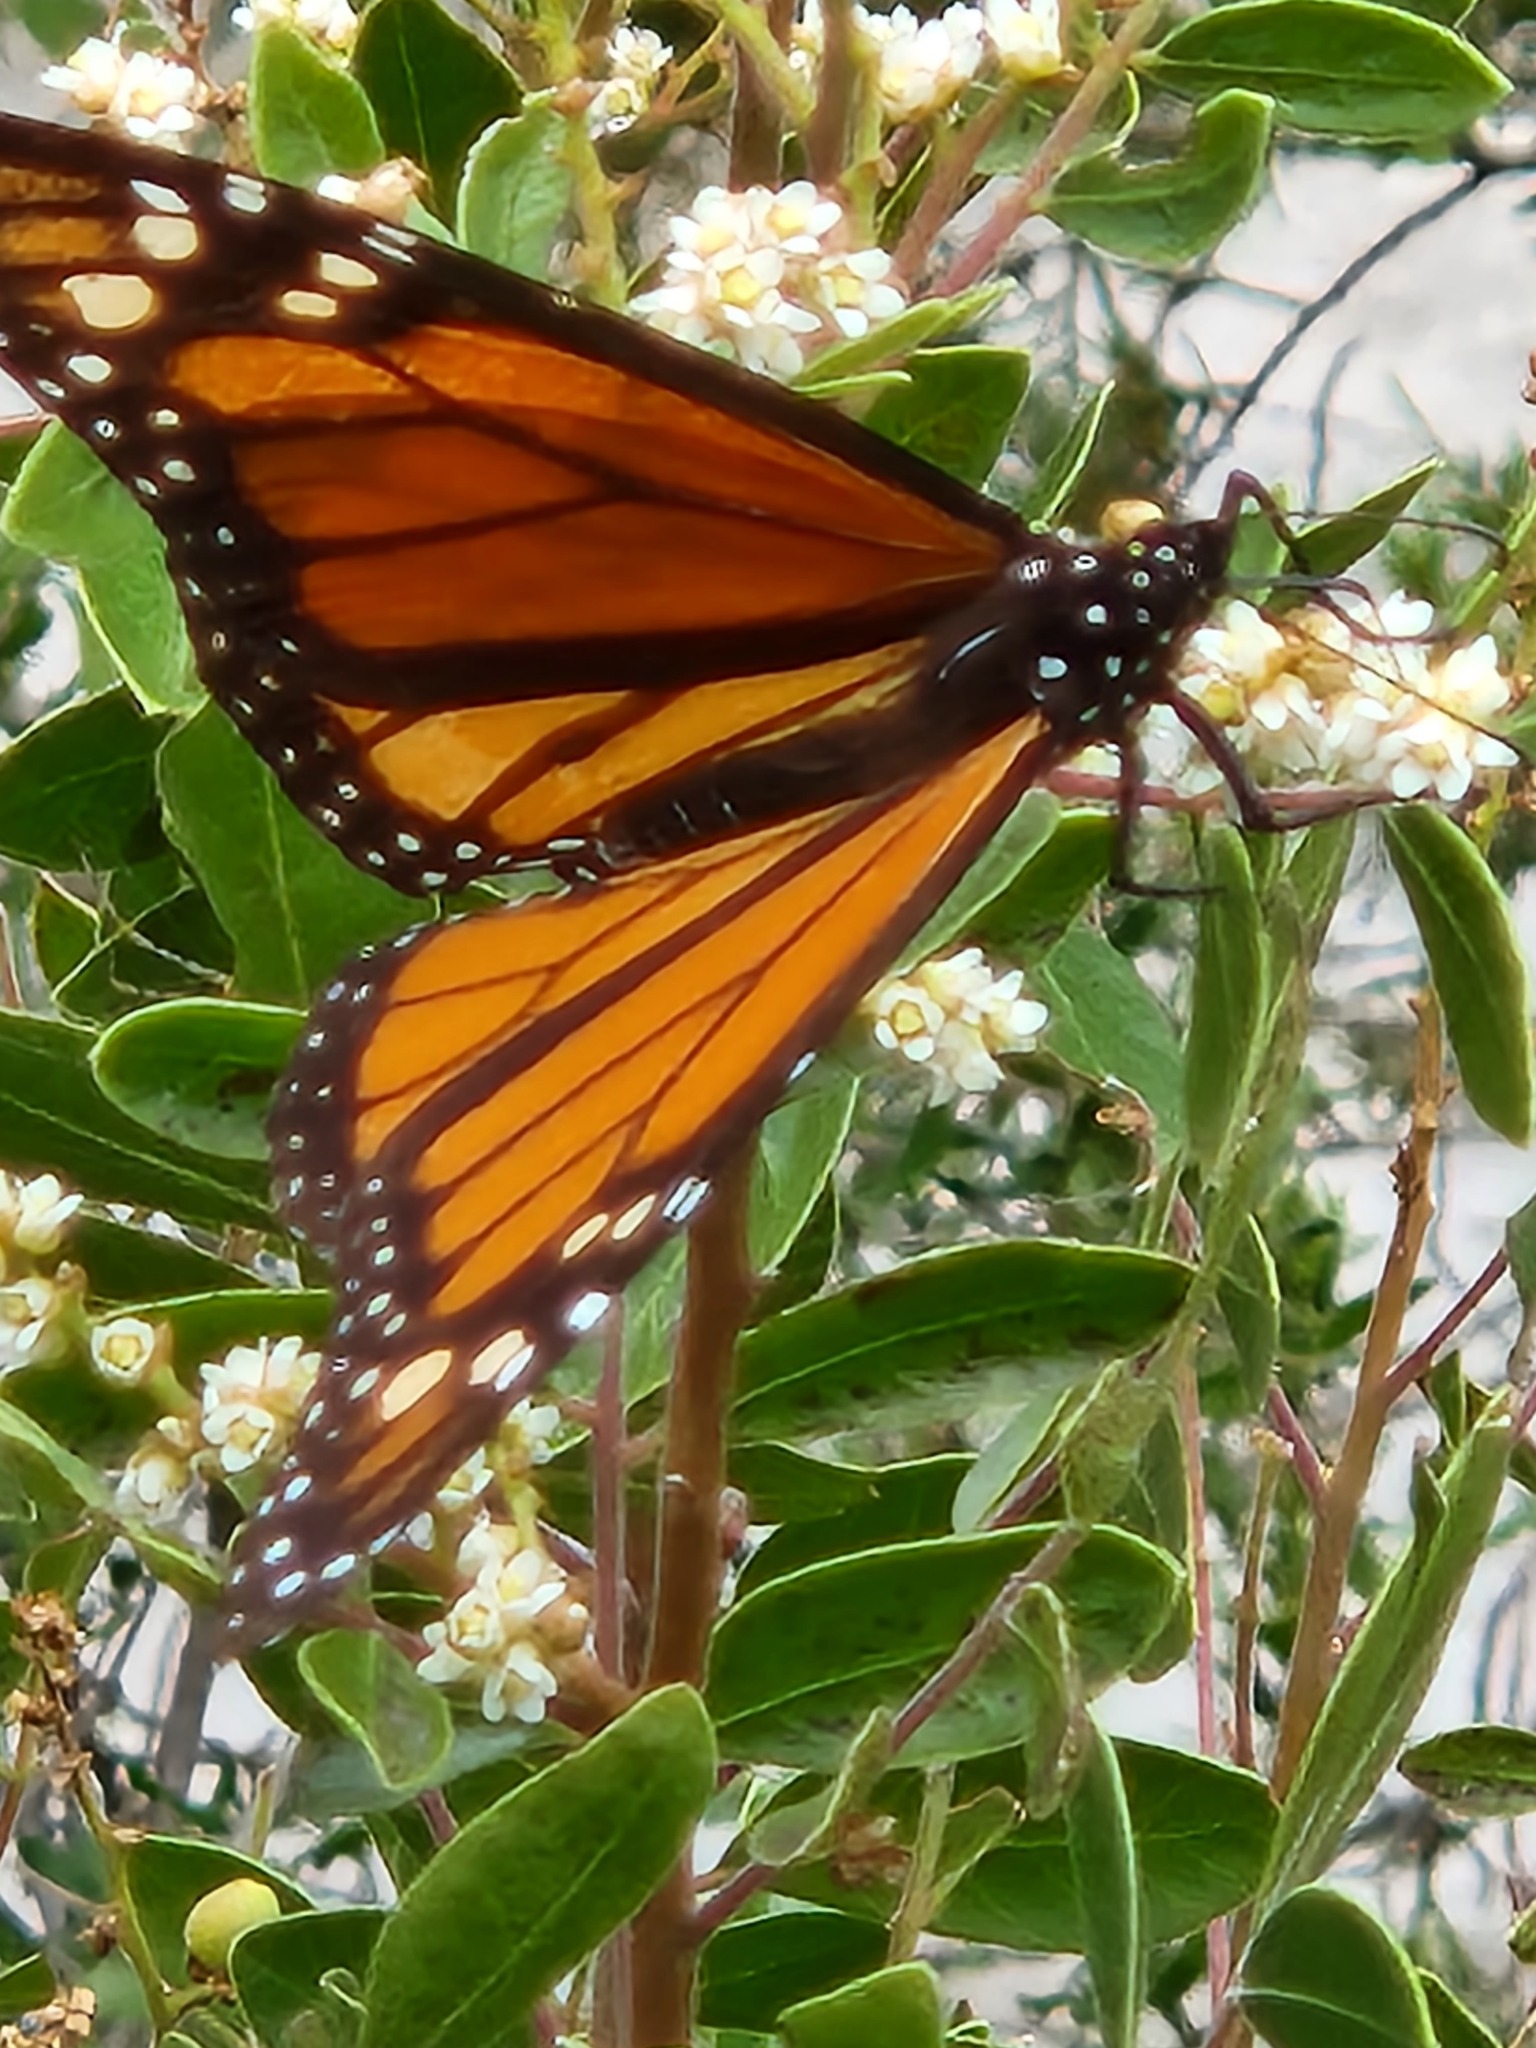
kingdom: Animalia
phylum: Arthropoda
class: Insecta
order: Lepidoptera
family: Nymphalidae
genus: Danaus
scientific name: Danaus plexippus
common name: Monarch
